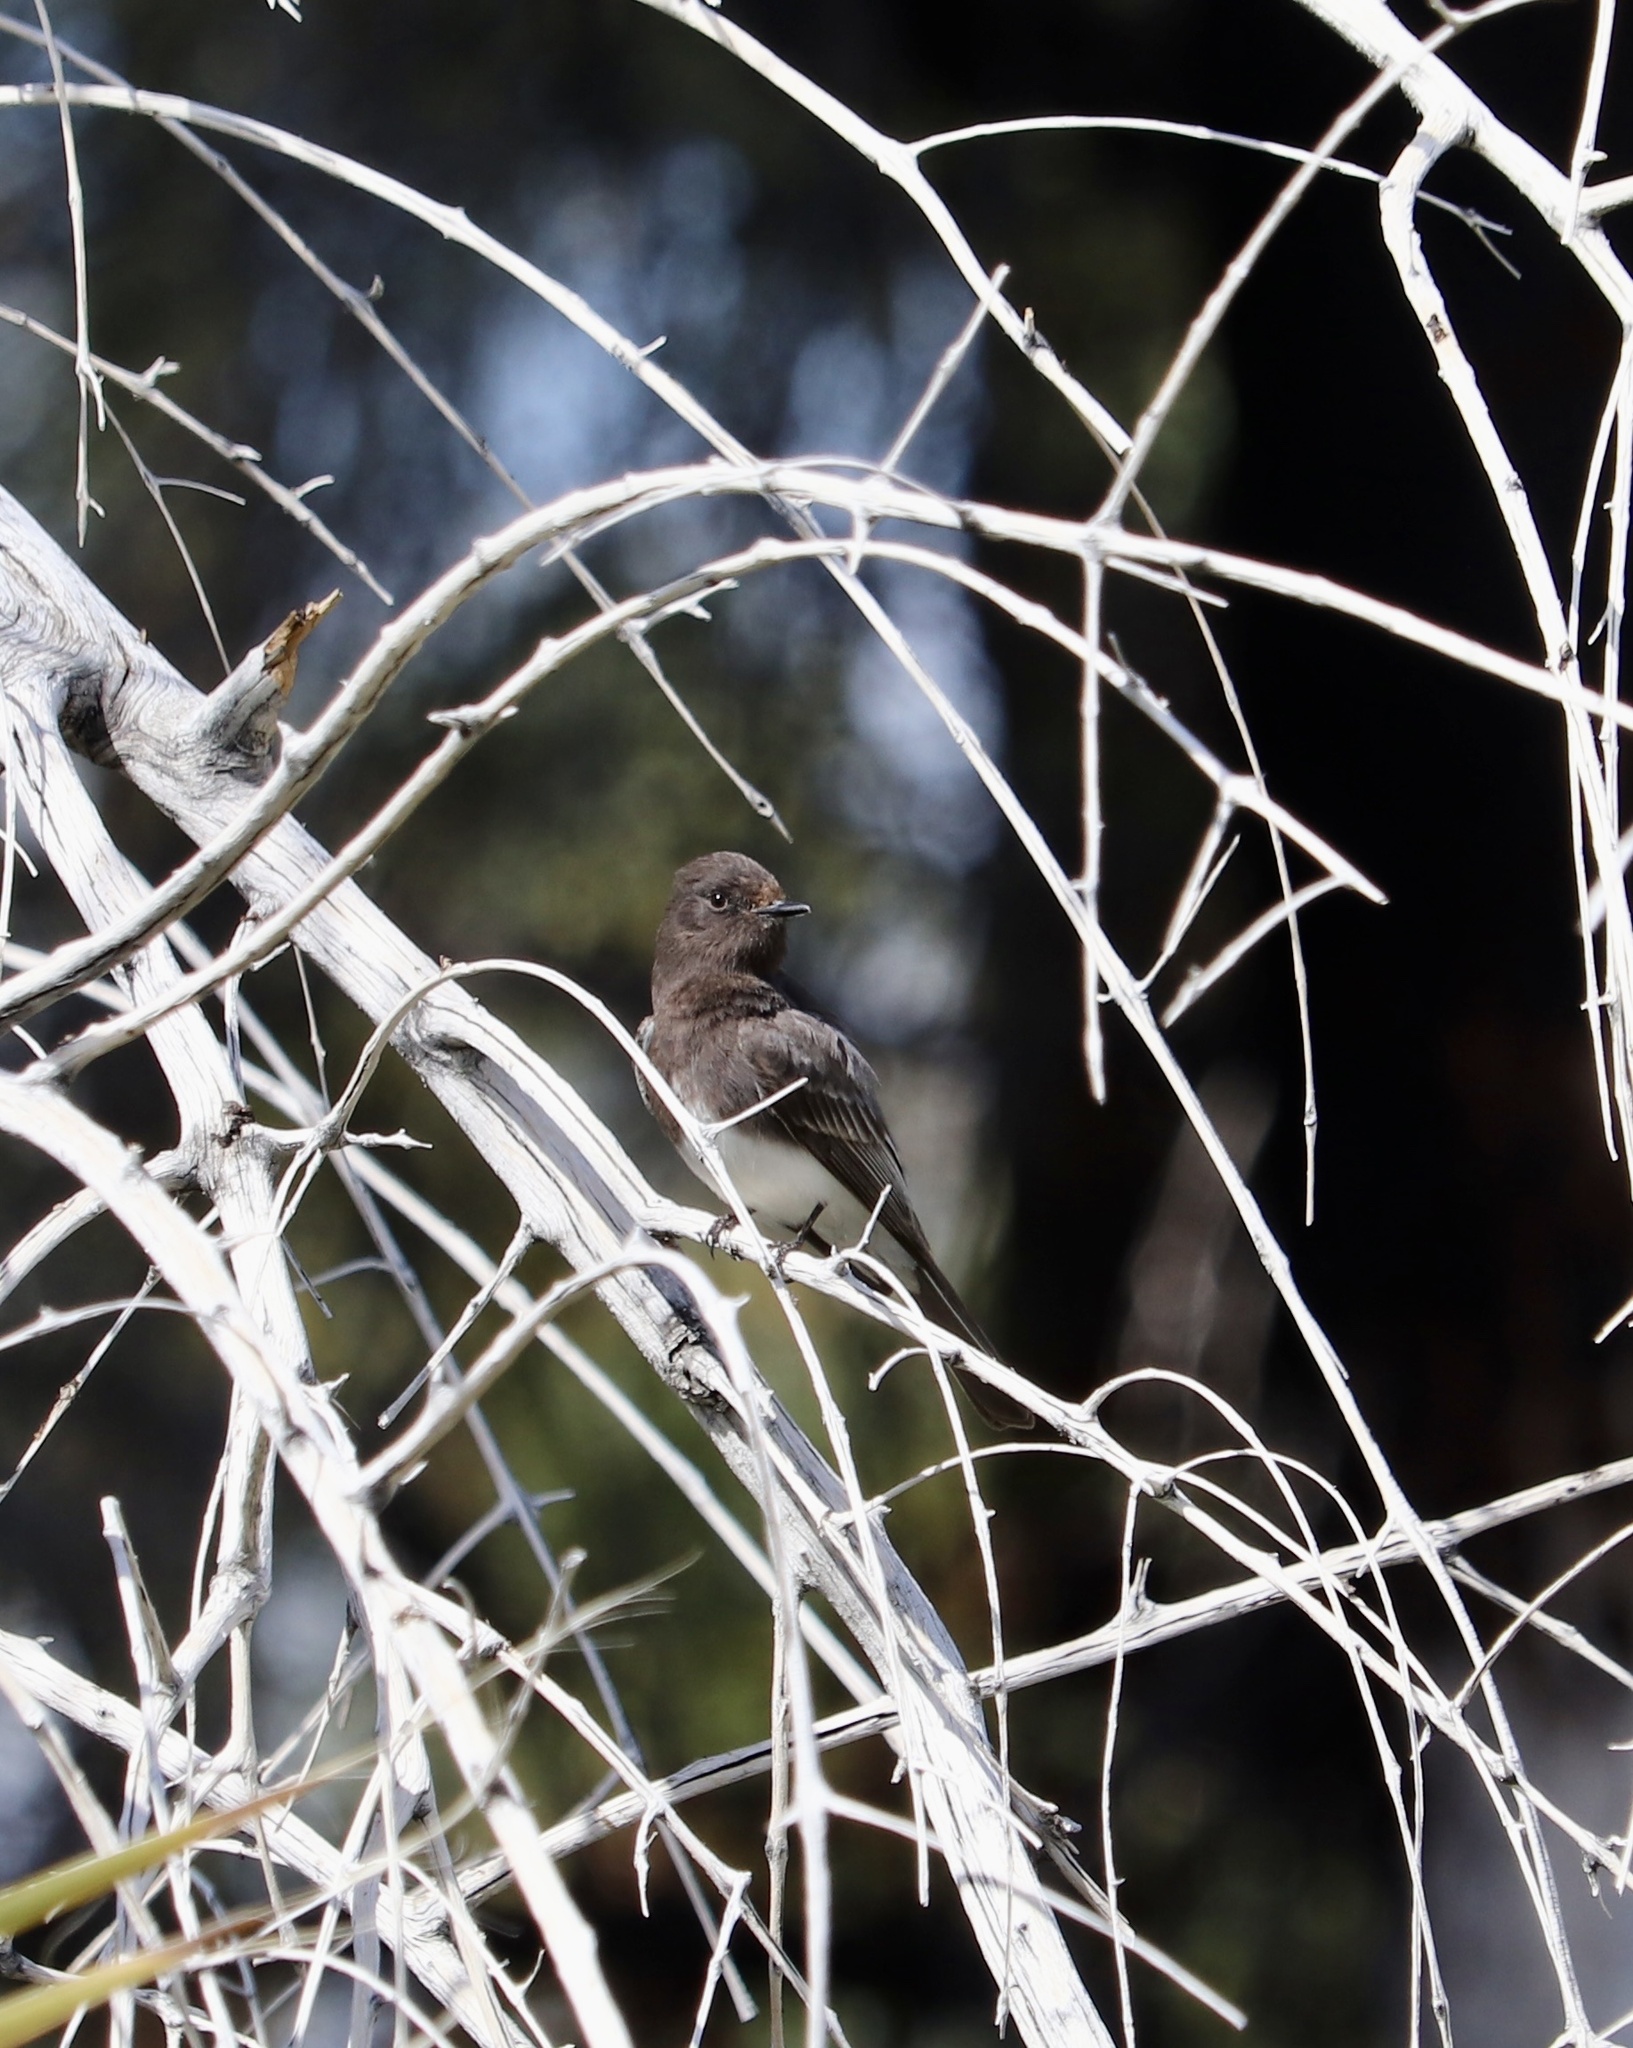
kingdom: Animalia
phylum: Chordata
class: Aves
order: Passeriformes
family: Tyrannidae
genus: Sayornis
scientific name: Sayornis nigricans
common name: Black phoebe
